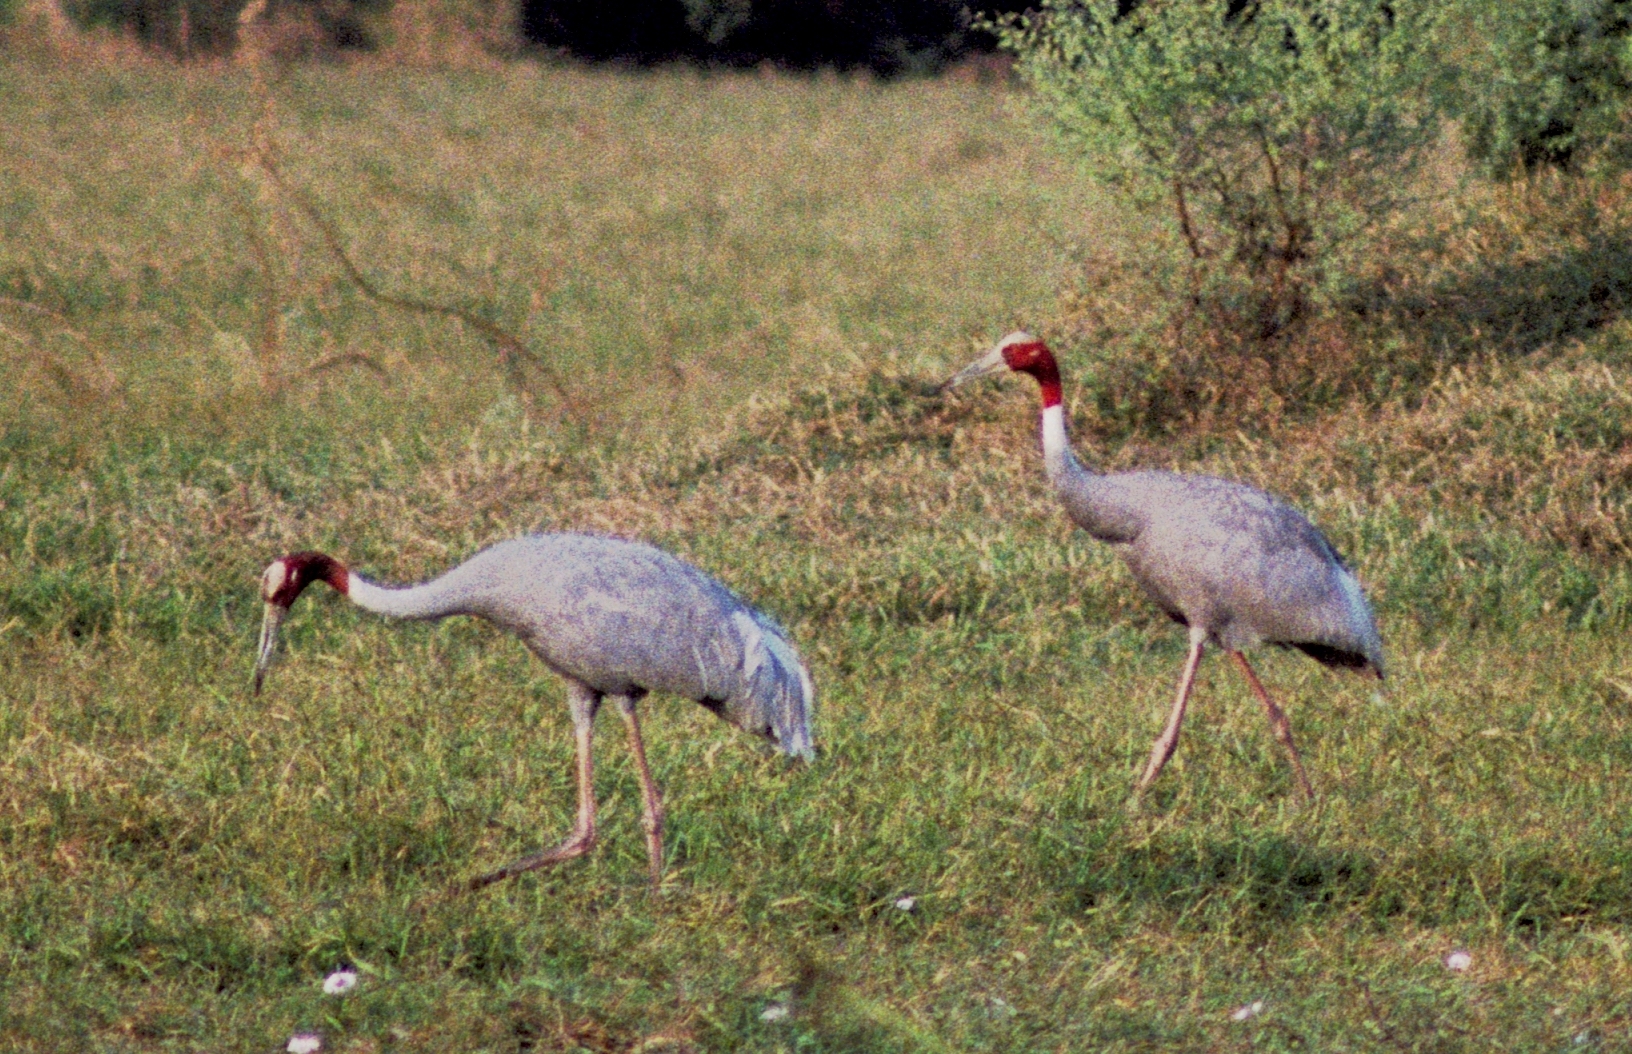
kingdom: Animalia
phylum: Chordata
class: Aves
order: Gruiformes
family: Gruidae
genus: Grus
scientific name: Grus antigone
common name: Sarus crane
